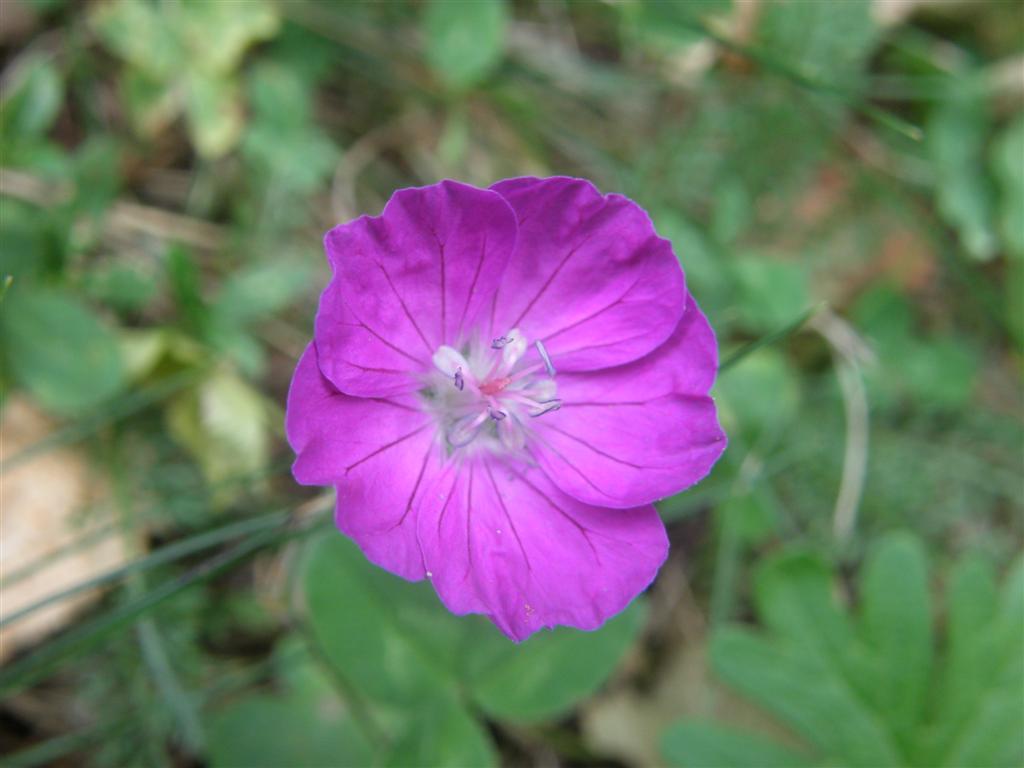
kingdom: Plantae
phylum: Tracheophyta
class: Magnoliopsida
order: Geraniales
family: Geraniaceae
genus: Geranium
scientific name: Geranium sanguineum
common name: Bloody crane's-bill
